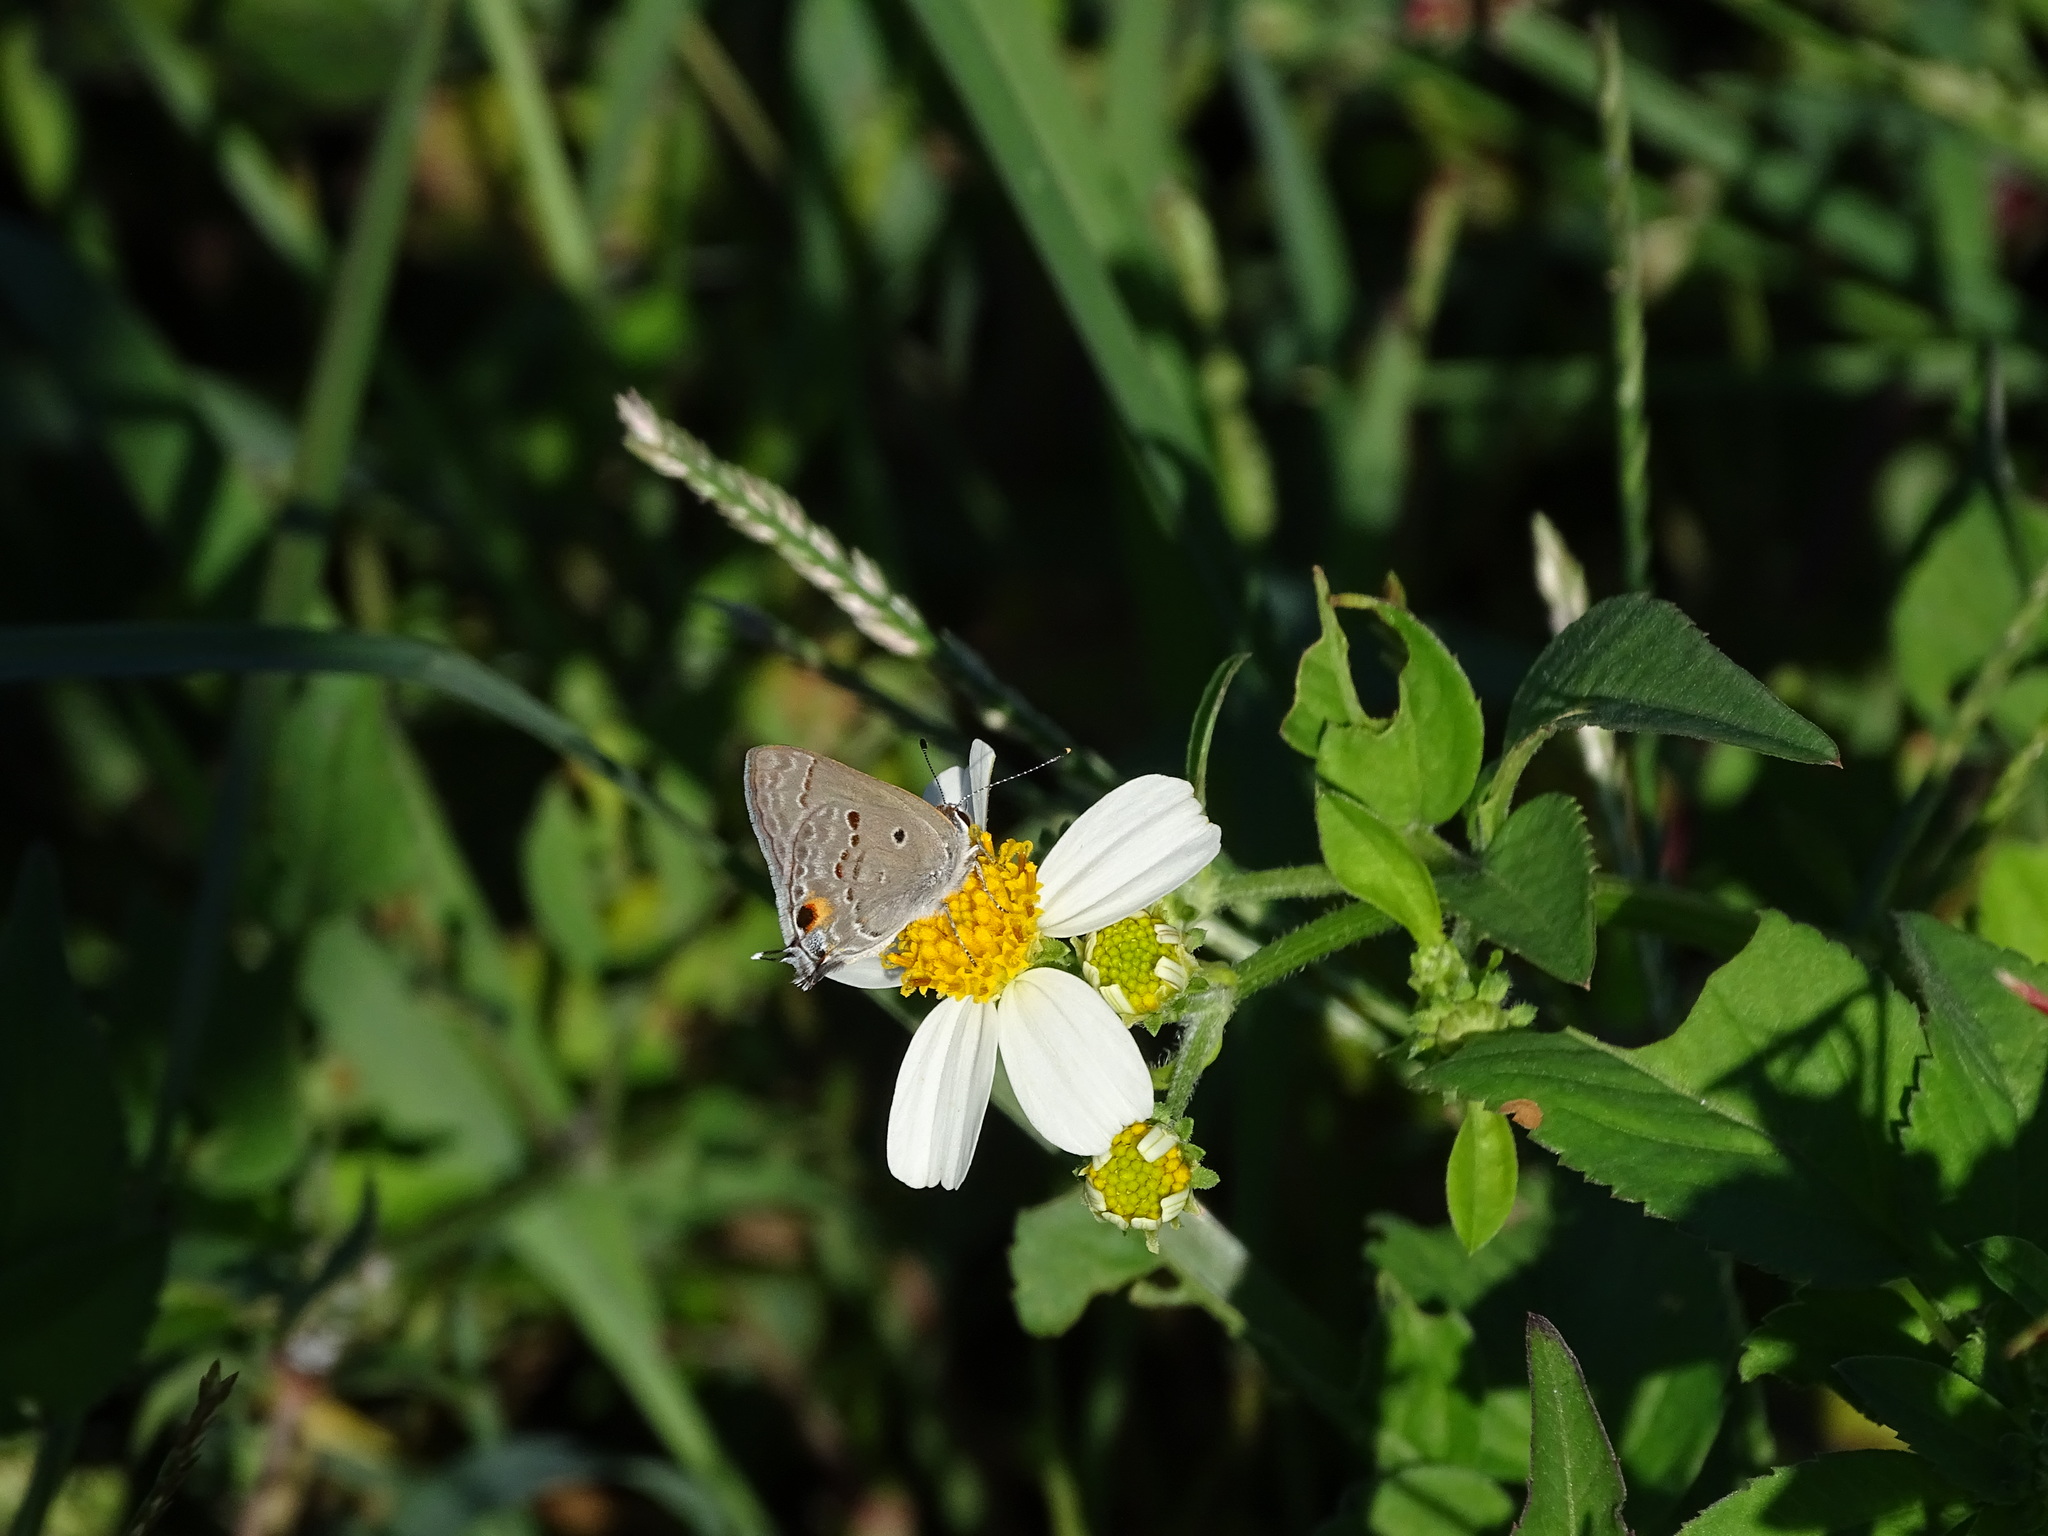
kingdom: Animalia
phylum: Arthropoda
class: Insecta
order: Lepidoptera
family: Lycaenidae
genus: Callicista
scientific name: Callicista columella
